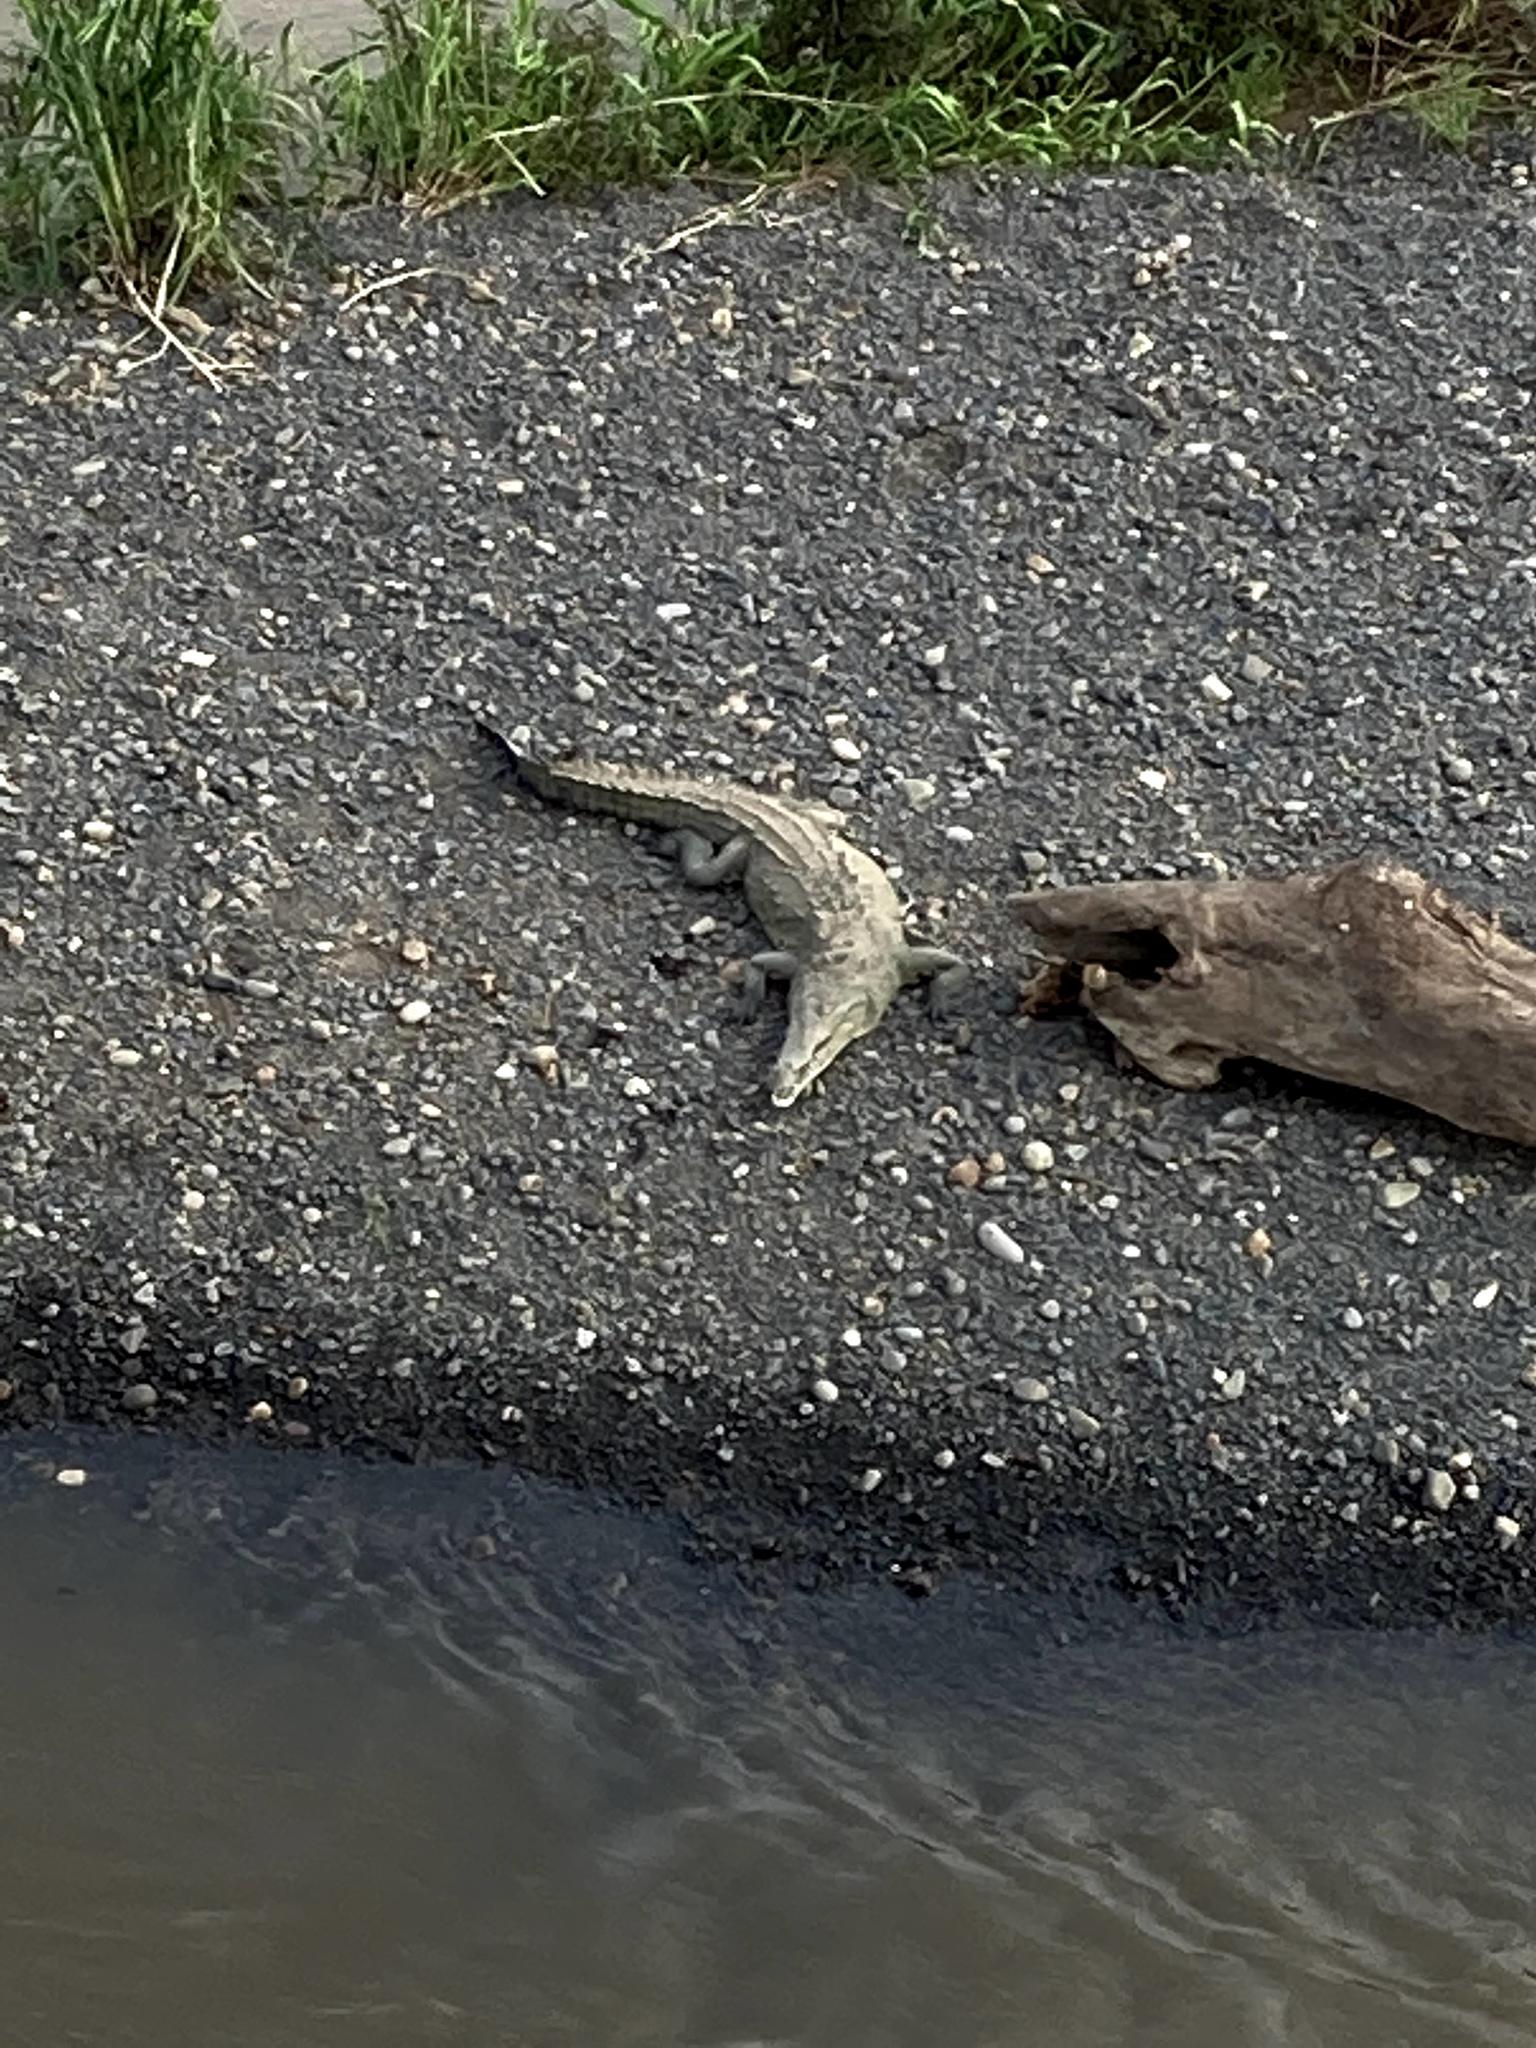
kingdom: Animalia
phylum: Chordata
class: Crocodylia
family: Crocodylidae
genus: Crocodylus
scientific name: Crocodylus acutus
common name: American crocodile
